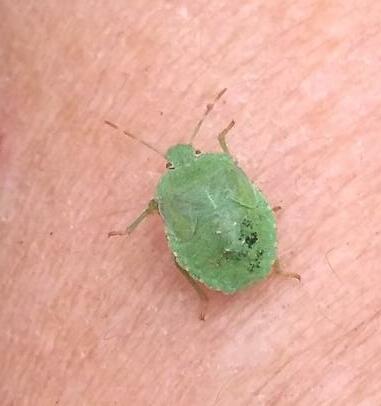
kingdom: Animalia
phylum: Arthropoda
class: Insecta
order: Hemiptera
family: Pentatomidae
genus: Palomena
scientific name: Palomena prasina
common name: Green shieldbug
